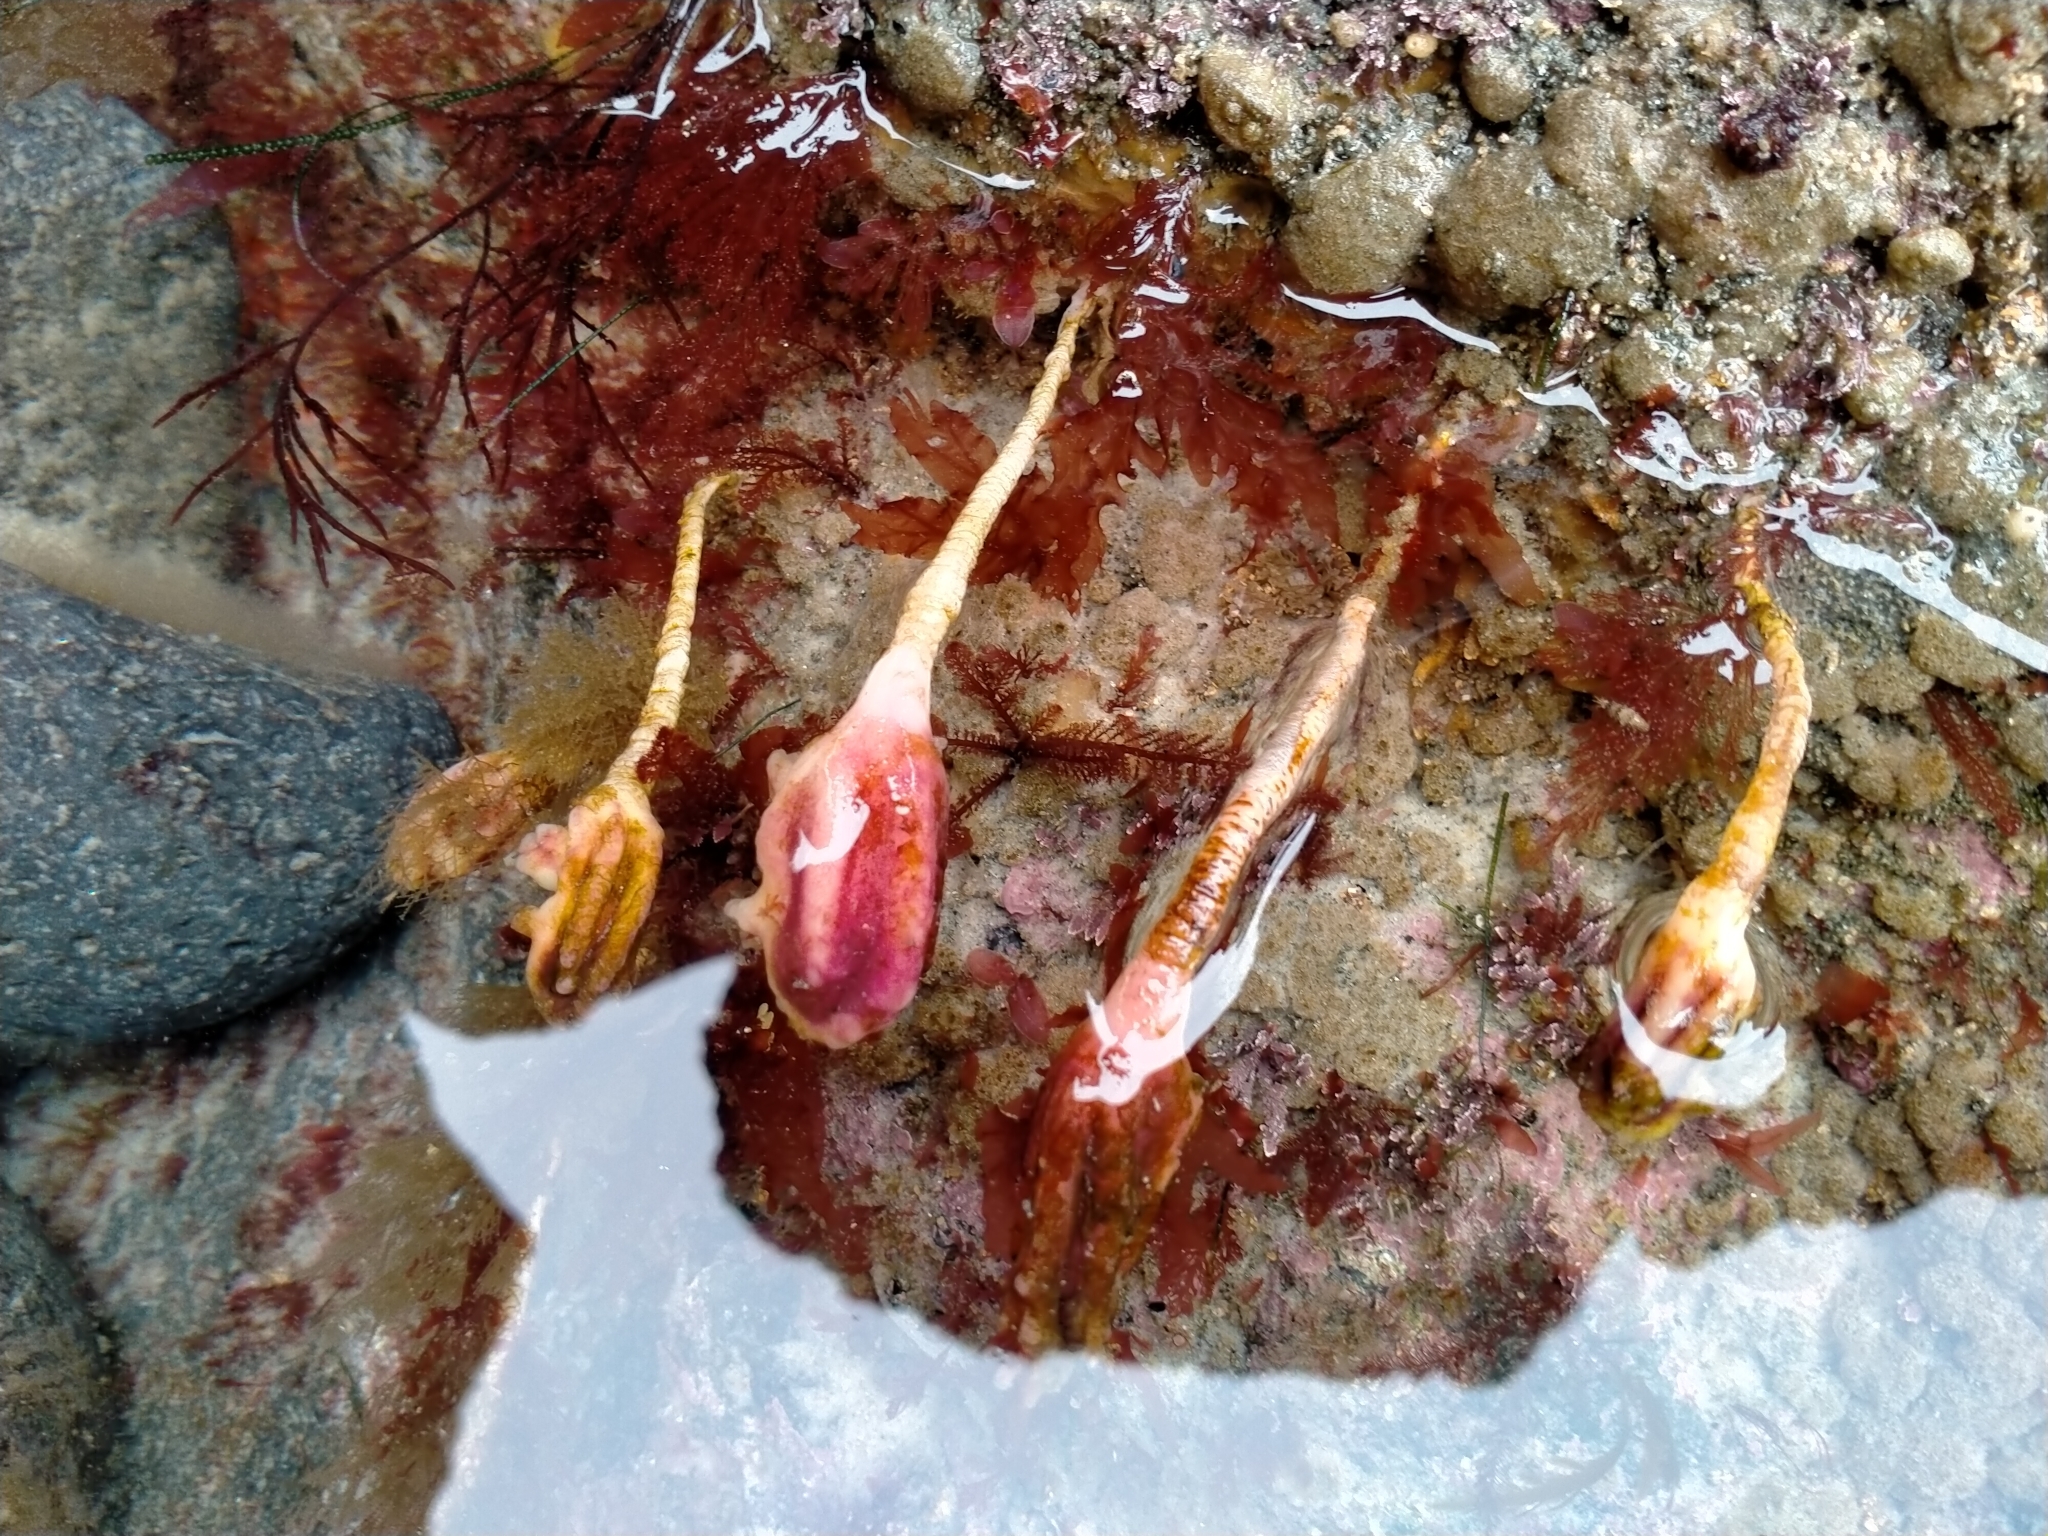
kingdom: Animalia
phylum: Chordata
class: Ascidiacea
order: Stolidobranchia
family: Pyuridae
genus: Pyura
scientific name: Pyura pachydermatina
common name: Sea tulip
